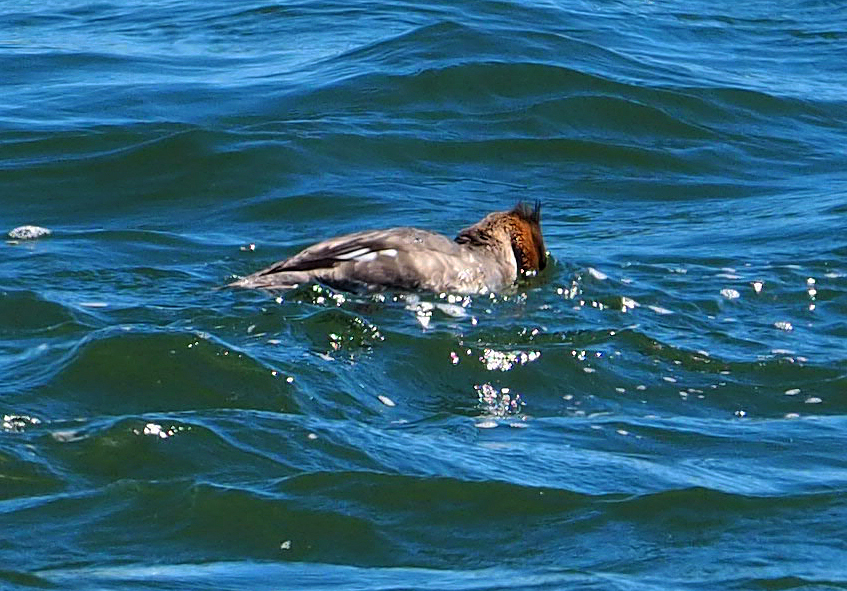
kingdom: Animalia
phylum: Chordata
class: Aves
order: Anseriformes
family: Anatidae
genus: Mergus
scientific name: Mergus serrator
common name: Red-breasted merganser
